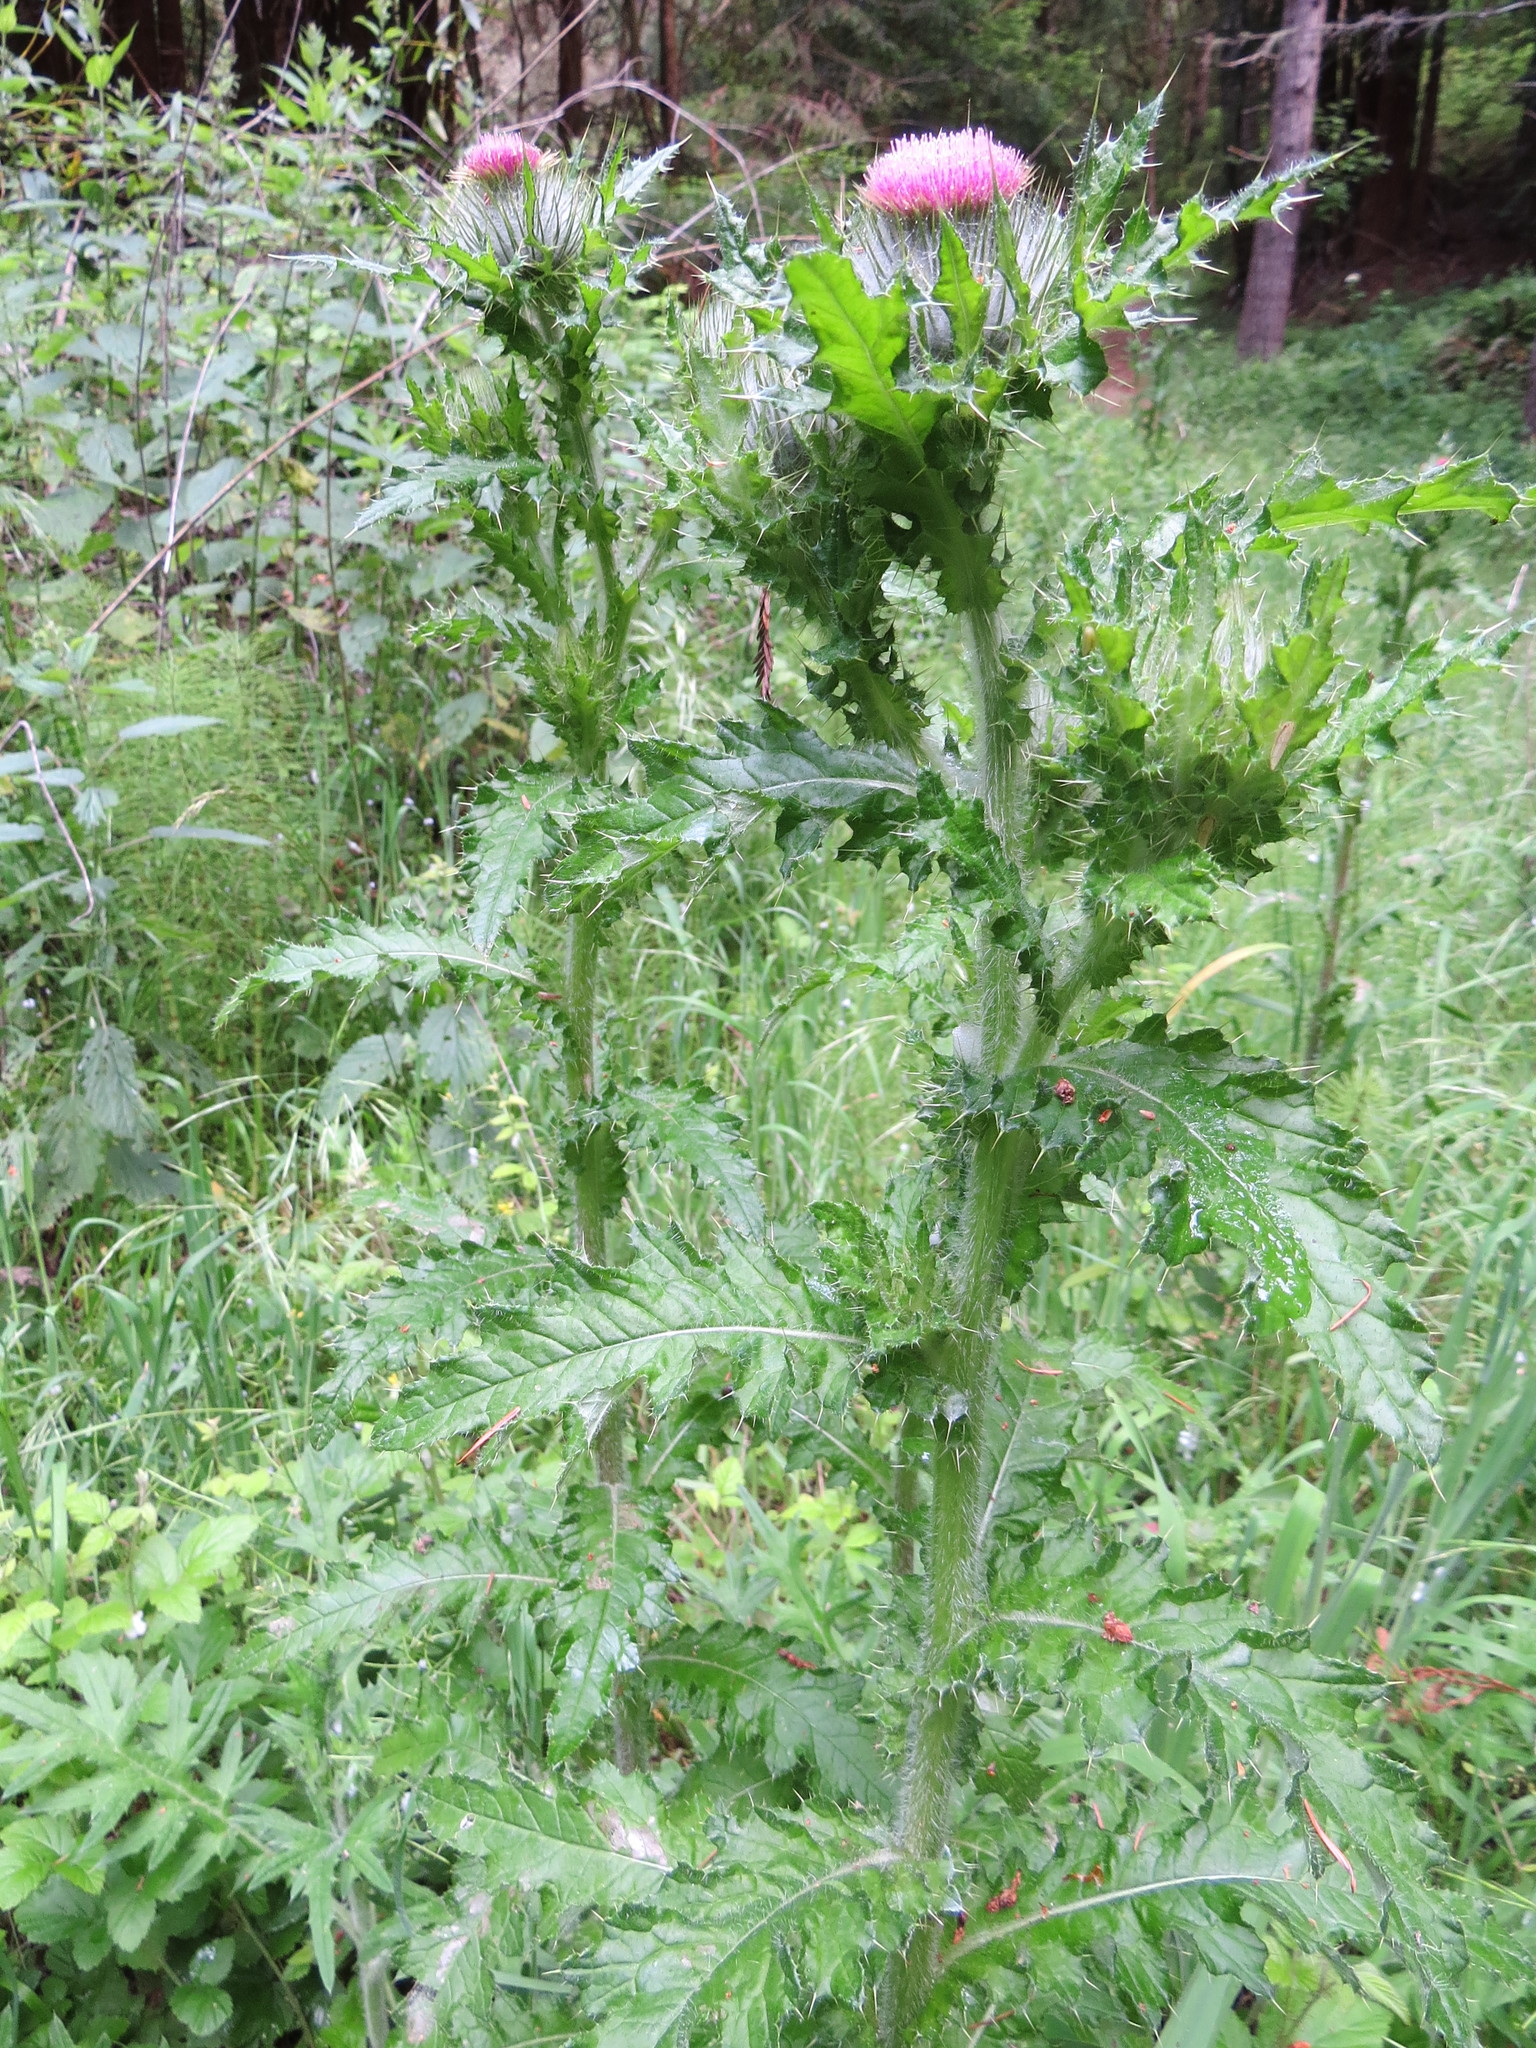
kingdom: Plantae
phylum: Tracheophyta
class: Magnoliopsida
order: Asterales
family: Asteraceae
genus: Cirsium
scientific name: Cirsium brevistylum
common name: Indian thistle
